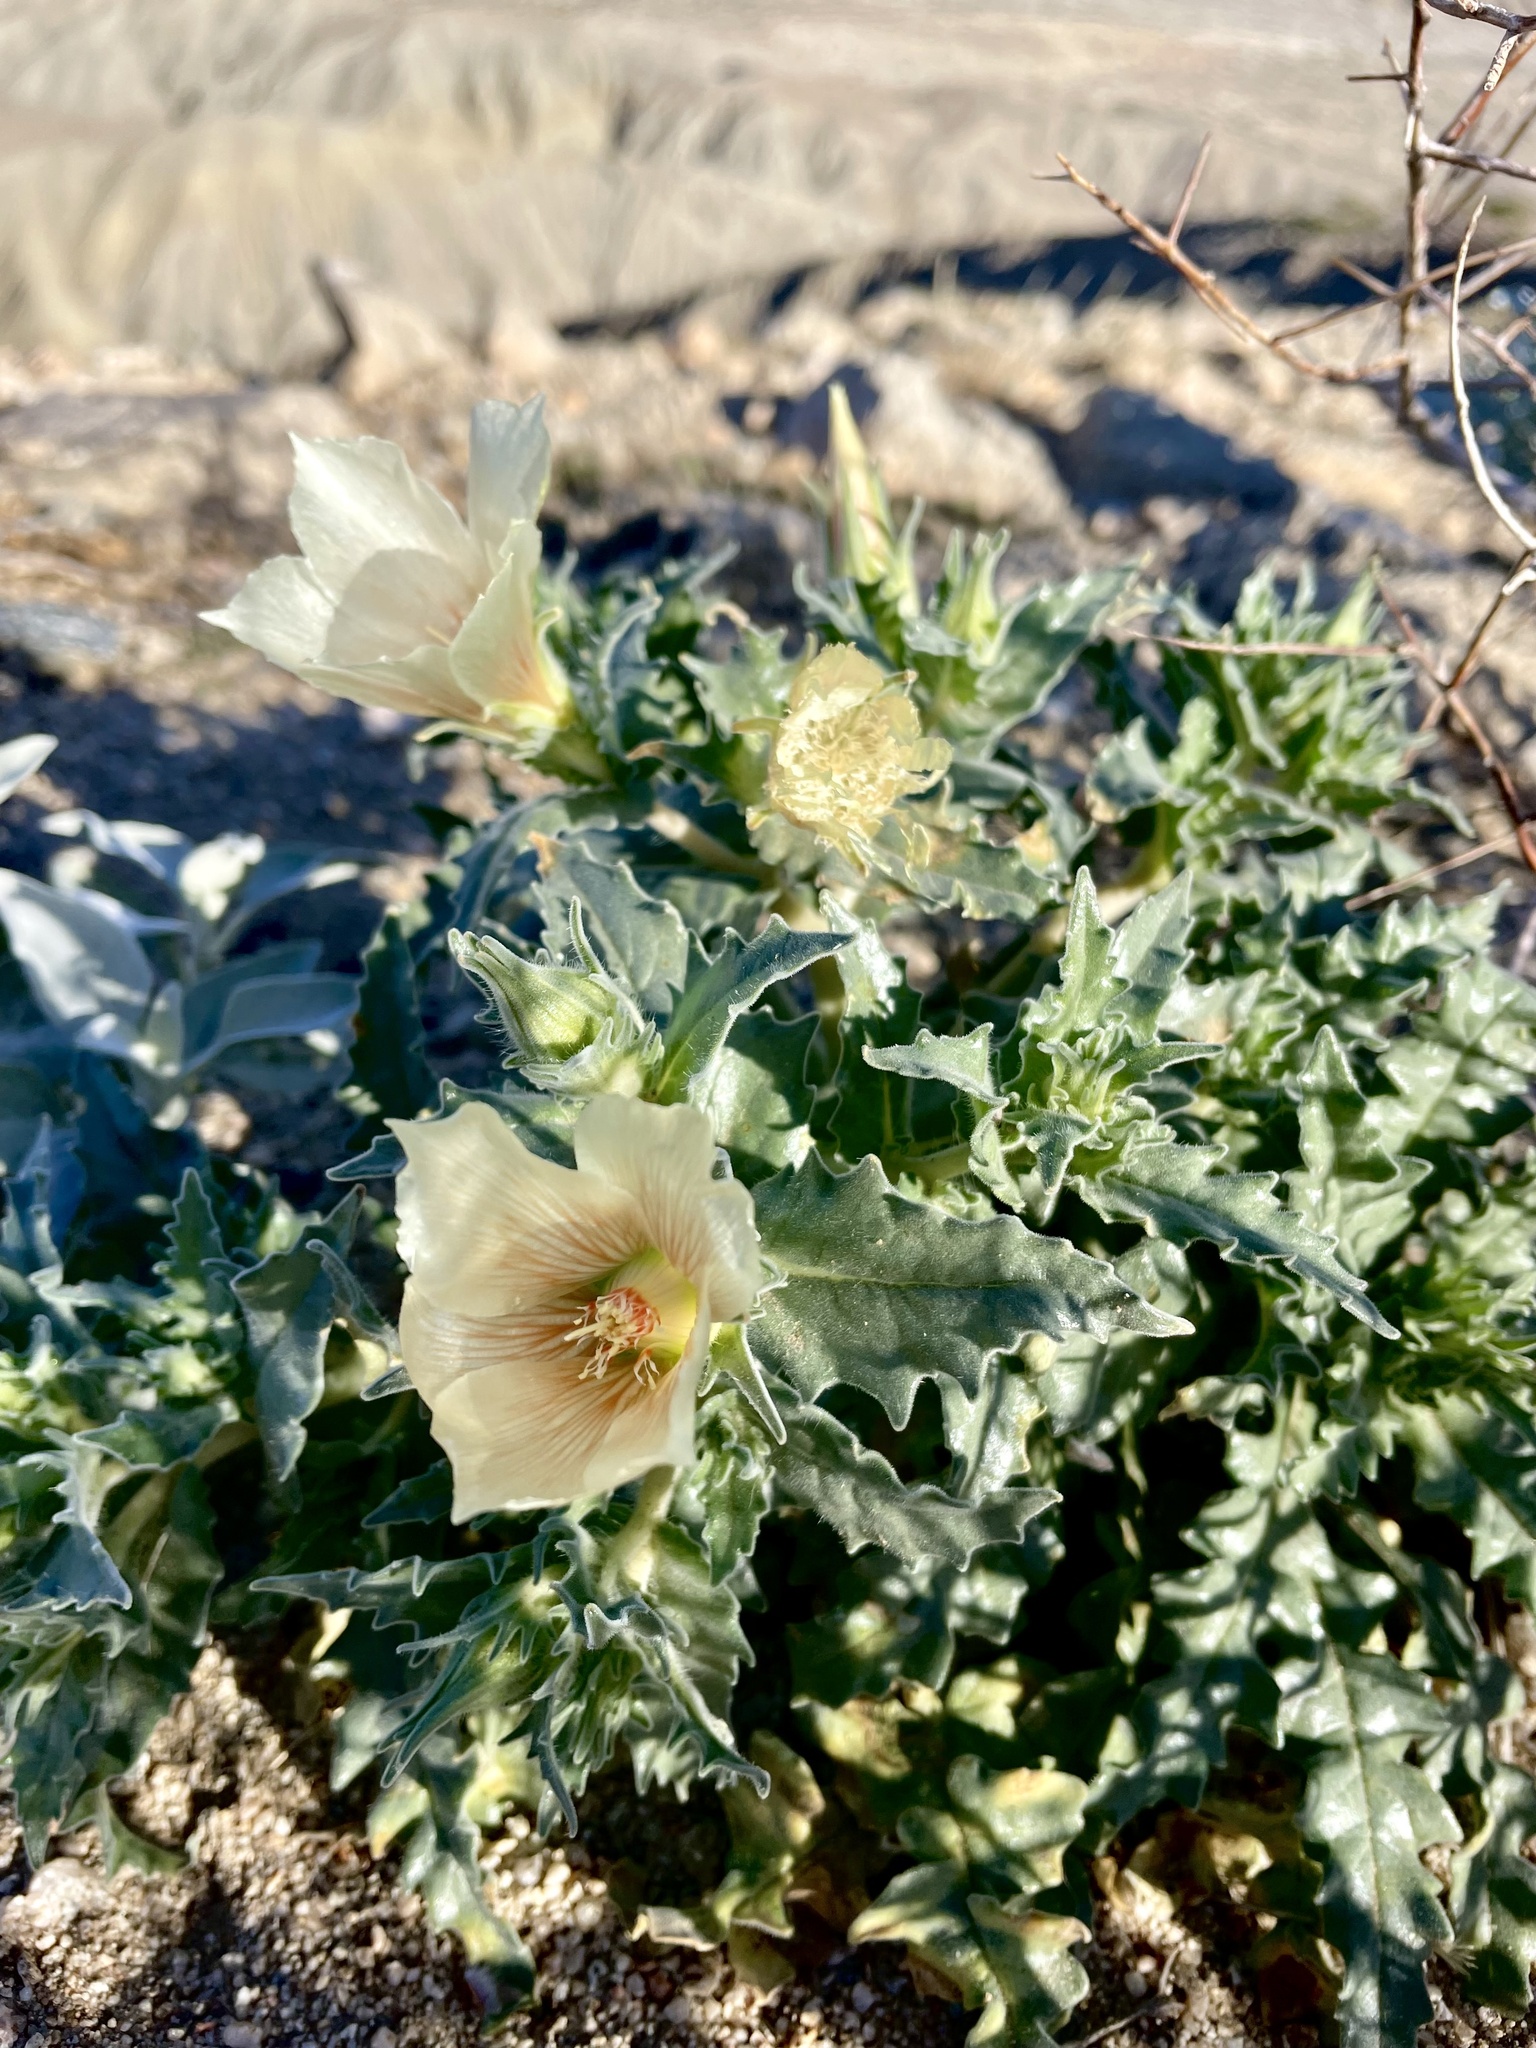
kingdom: Plantae
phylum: Tracheophyta
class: Magnoliopsida
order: Cornales
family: Loasaceae
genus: Mentzelia
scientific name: Mentzelia involucrata
